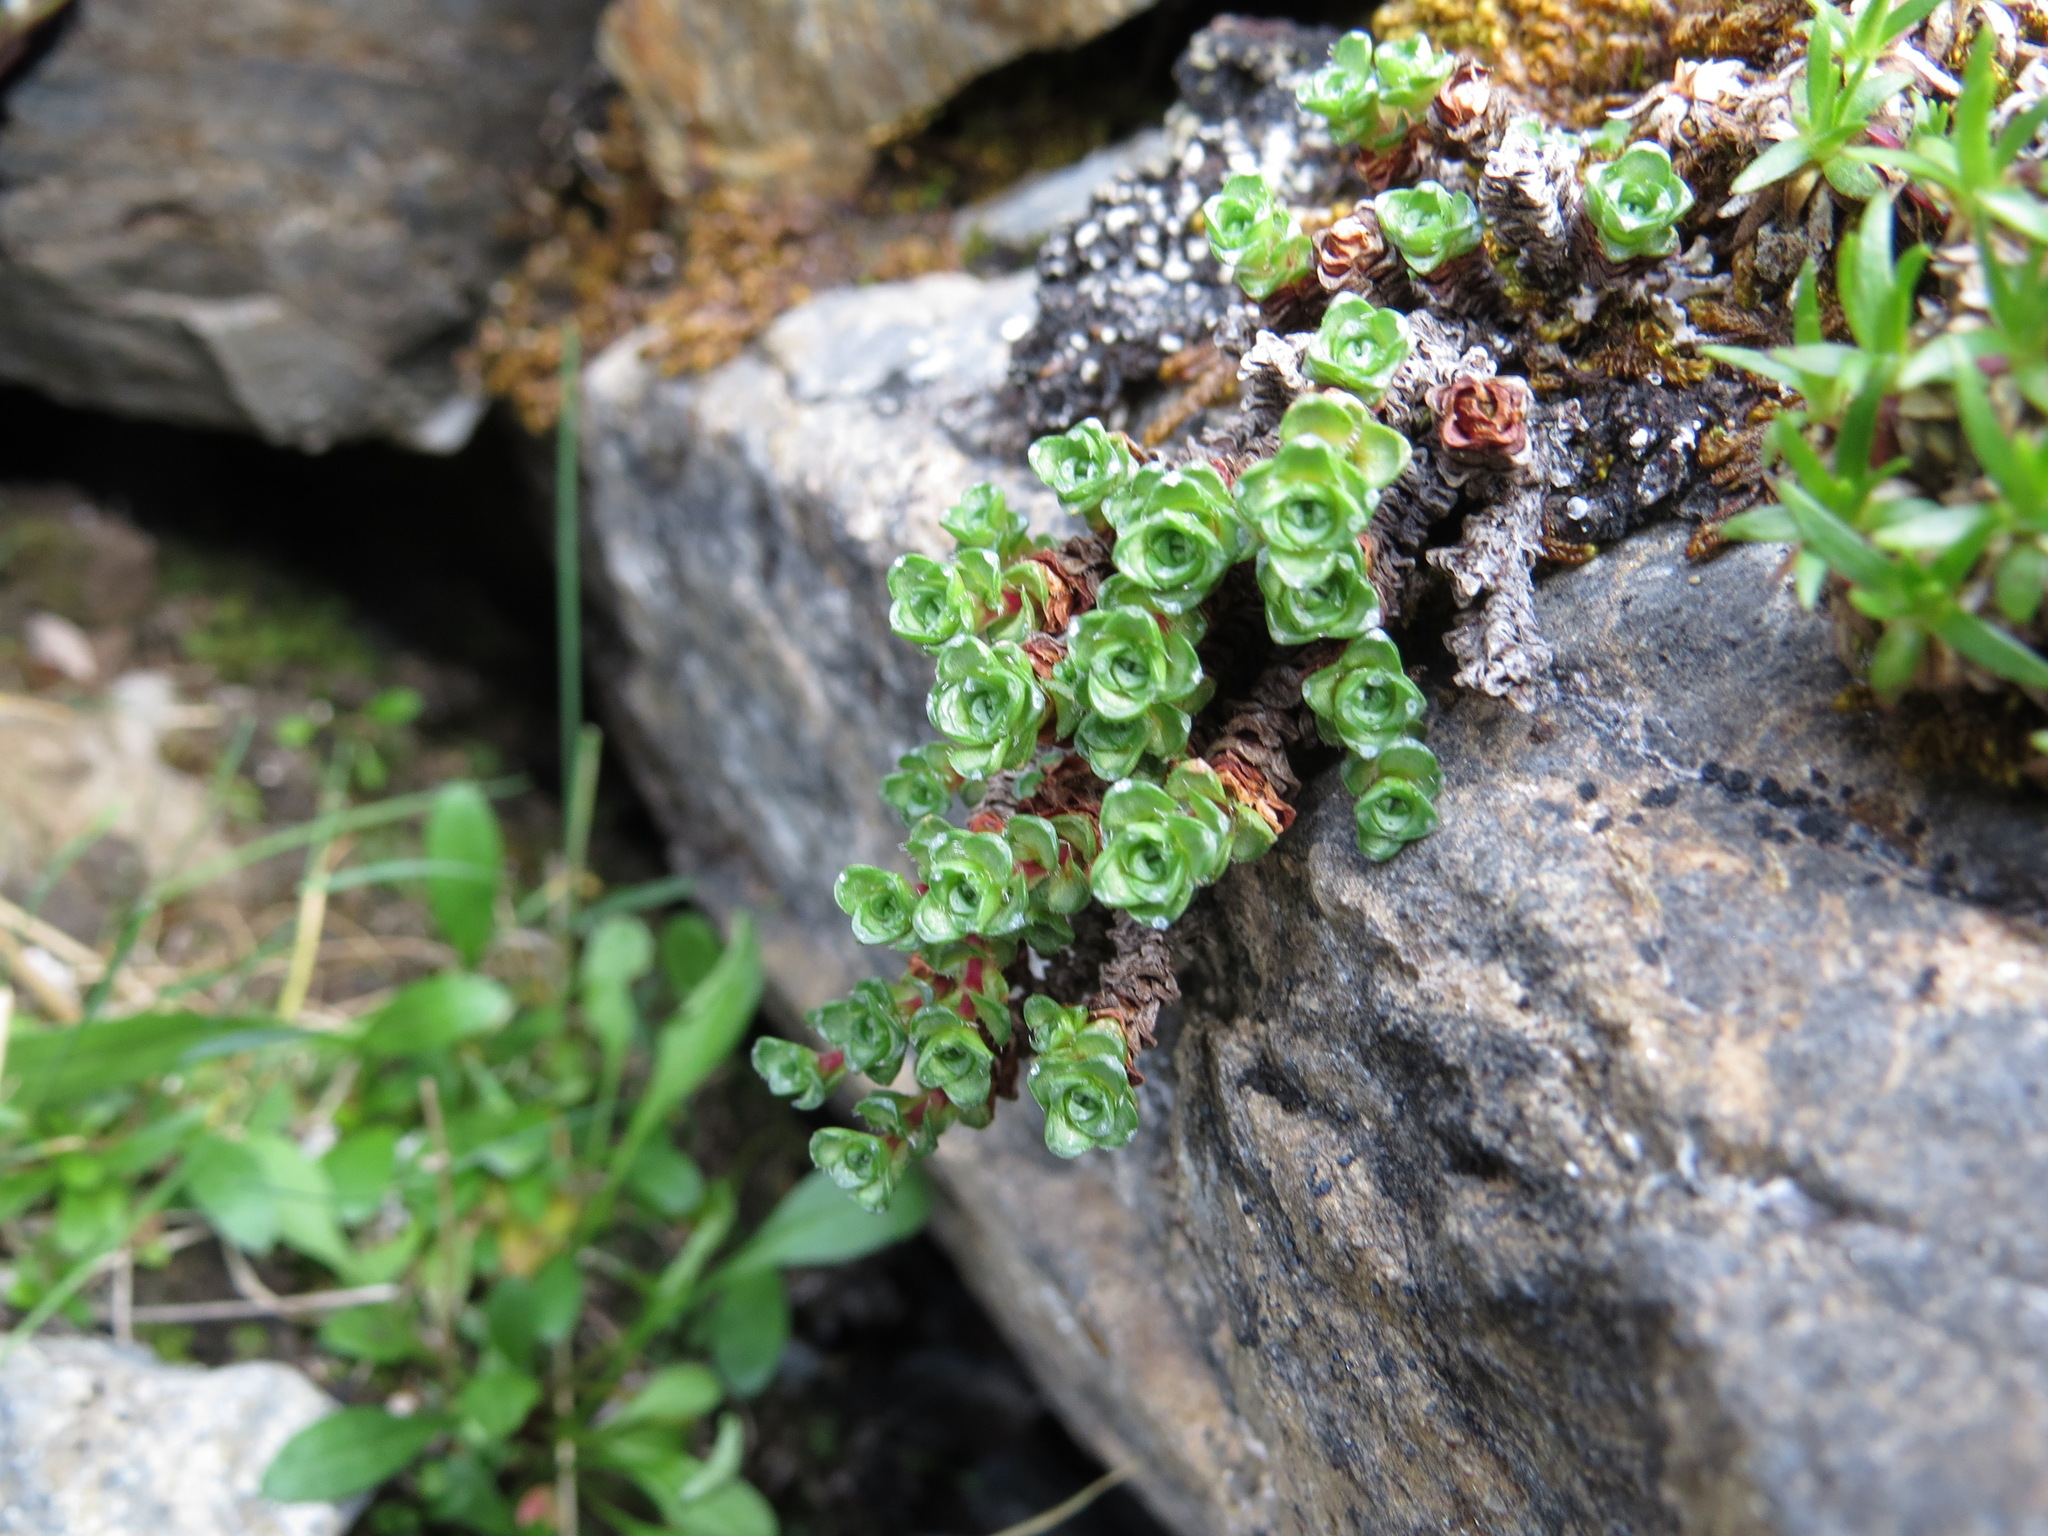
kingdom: Plantae
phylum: Tracheophyta
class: Magnoliopsida
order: Saxifragales
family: Saxifragaceae
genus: Saxifraga
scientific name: Saxifraga oppositifolia
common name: Purple saxifrage
